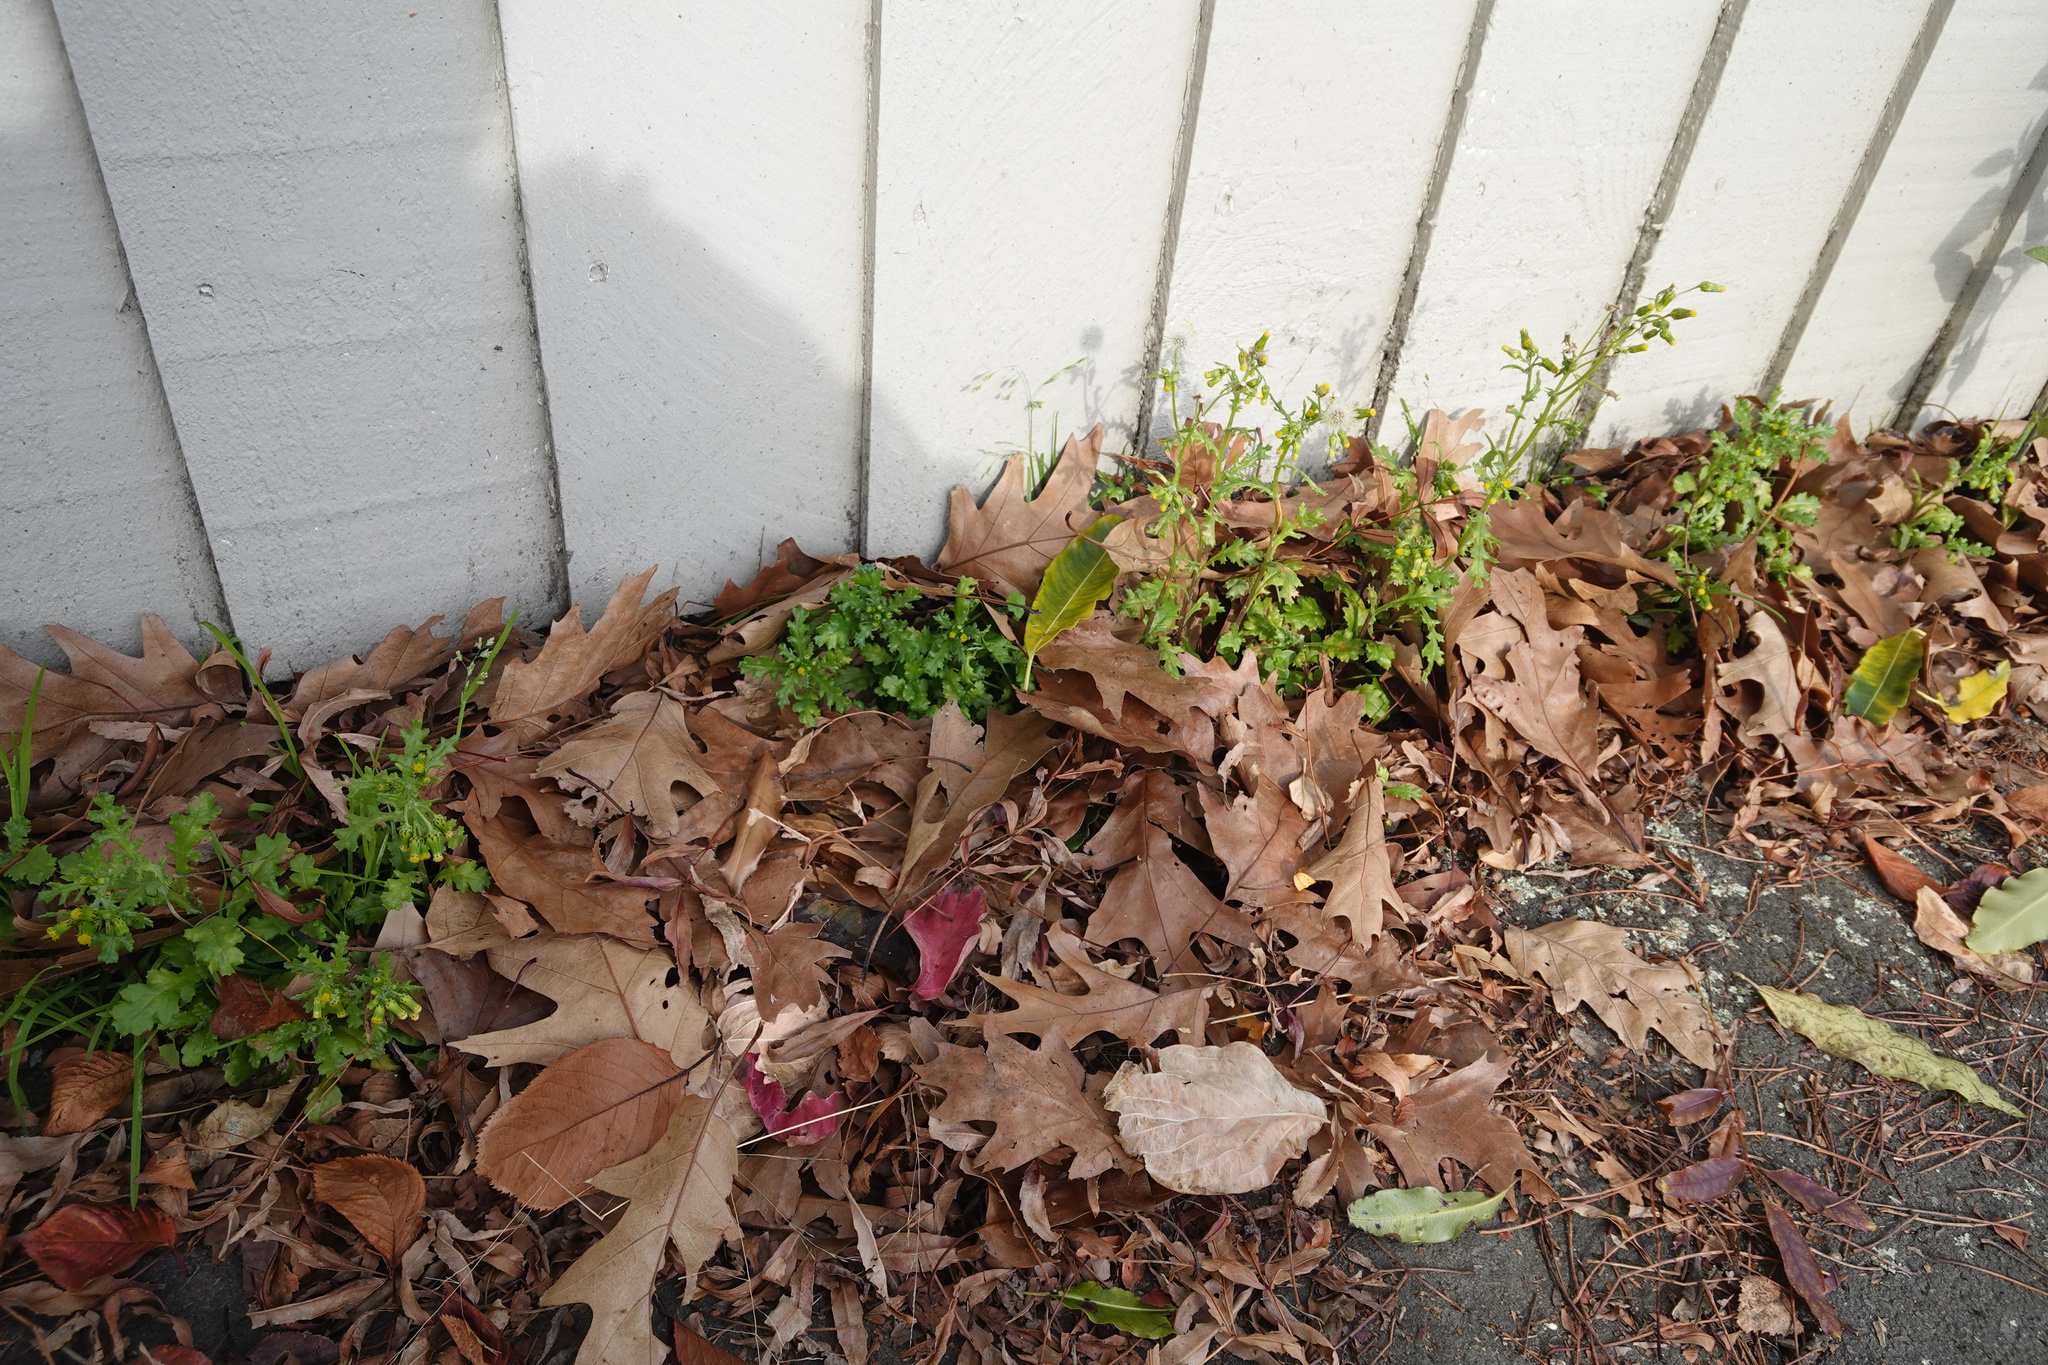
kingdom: Plantae
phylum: Tracheophyta
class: Magnoliopsida
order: Asterales
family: Asteraceae
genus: Senecio
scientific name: Senecio vulgaris
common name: Old-man-in-the-spring
